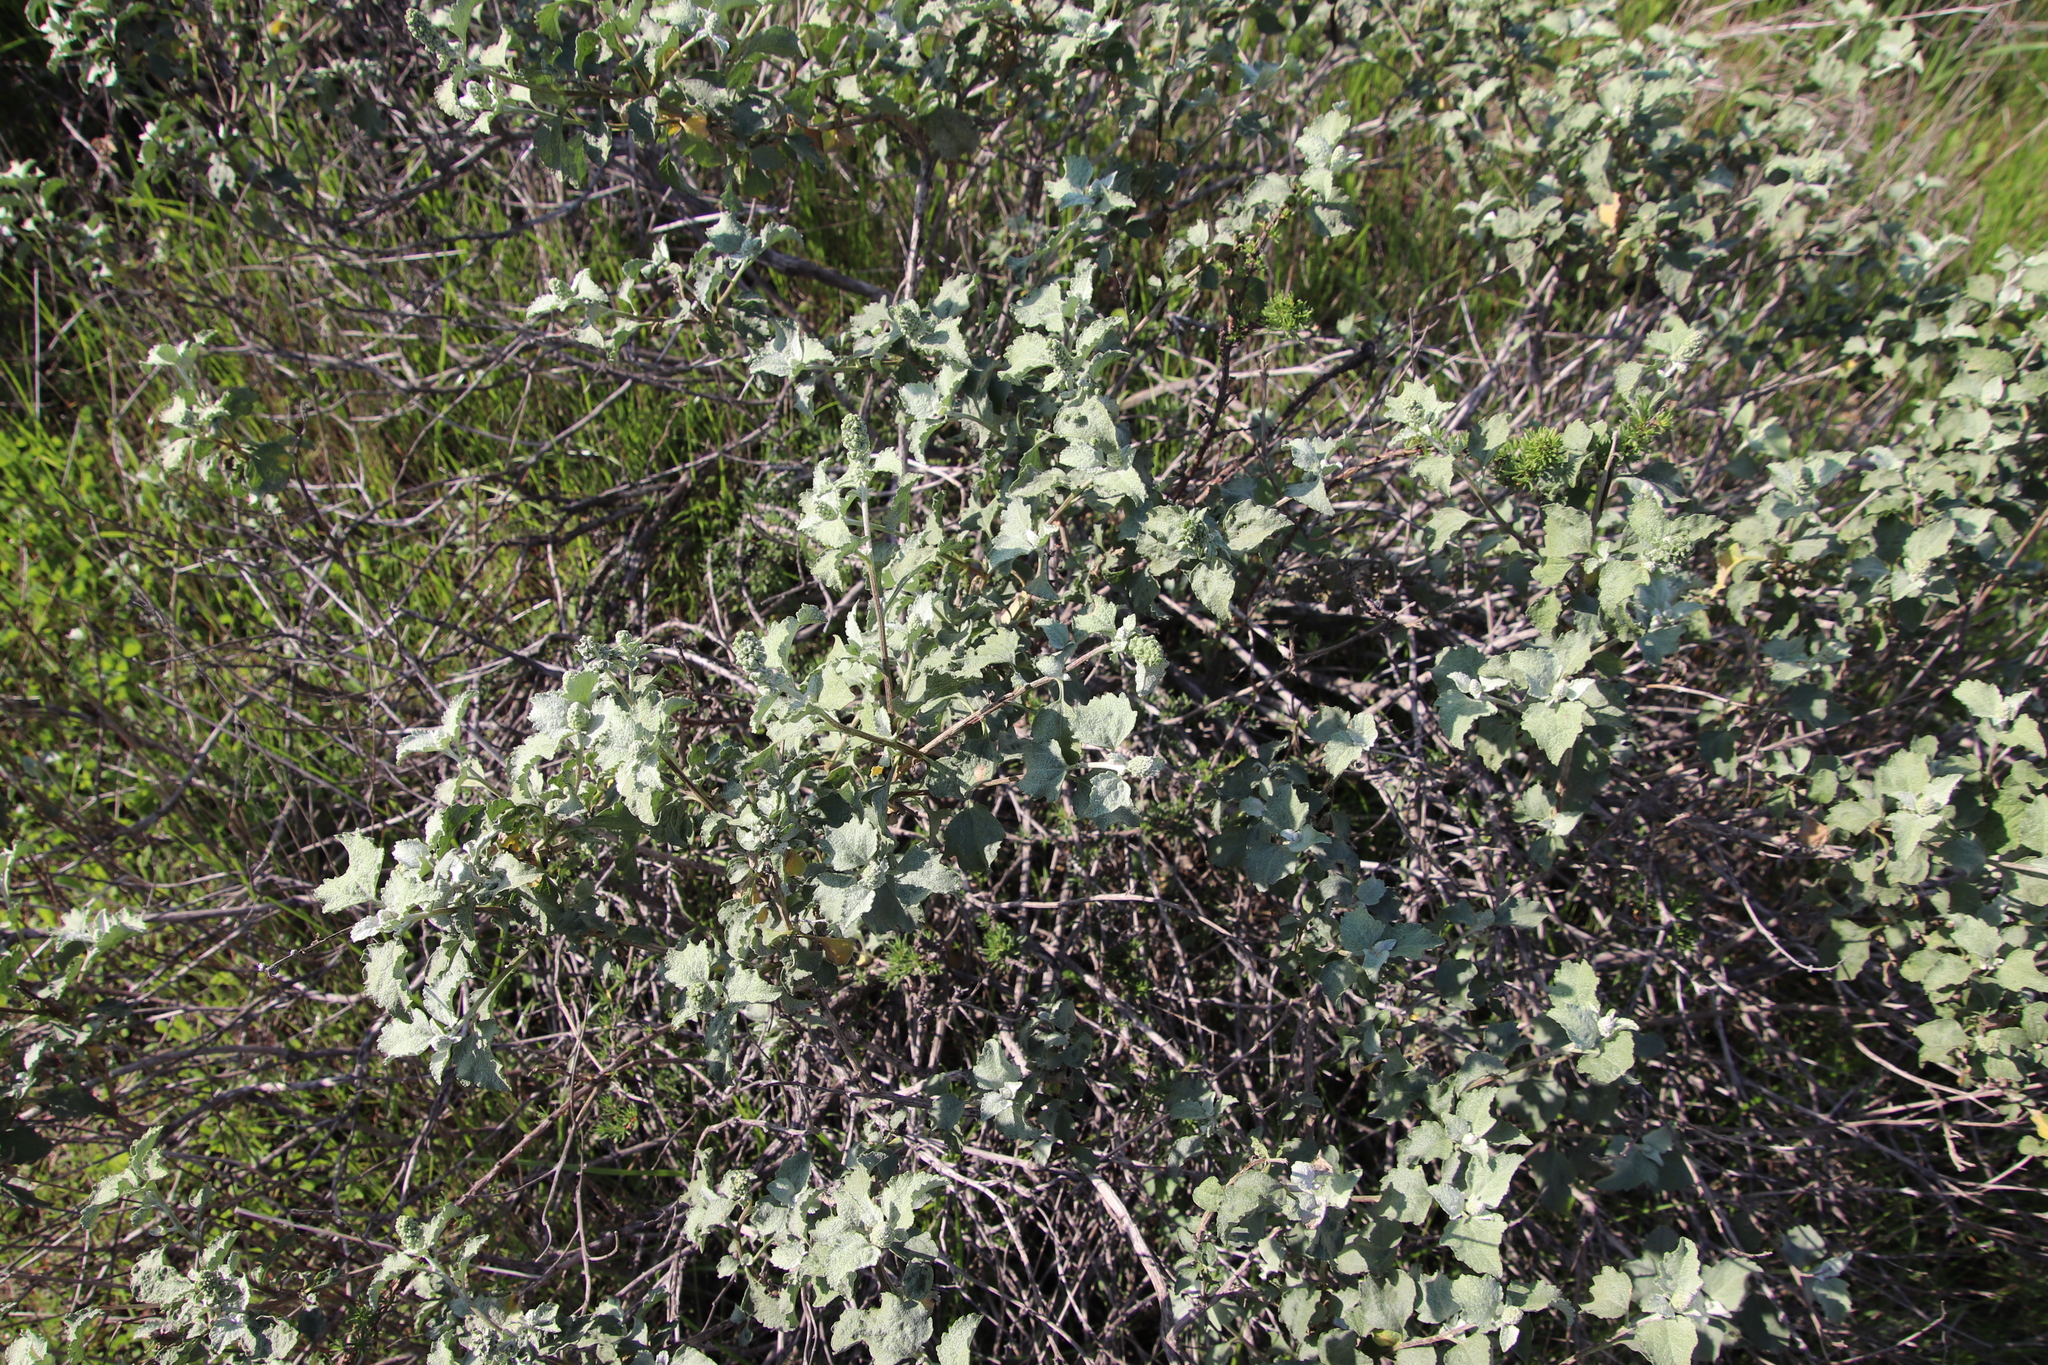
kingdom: Plantae
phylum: Tracheophyta
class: Magnoliopsida
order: Asterales
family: Asteraceae
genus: Ambrosia
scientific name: Ambrosia chenopodiifolia
